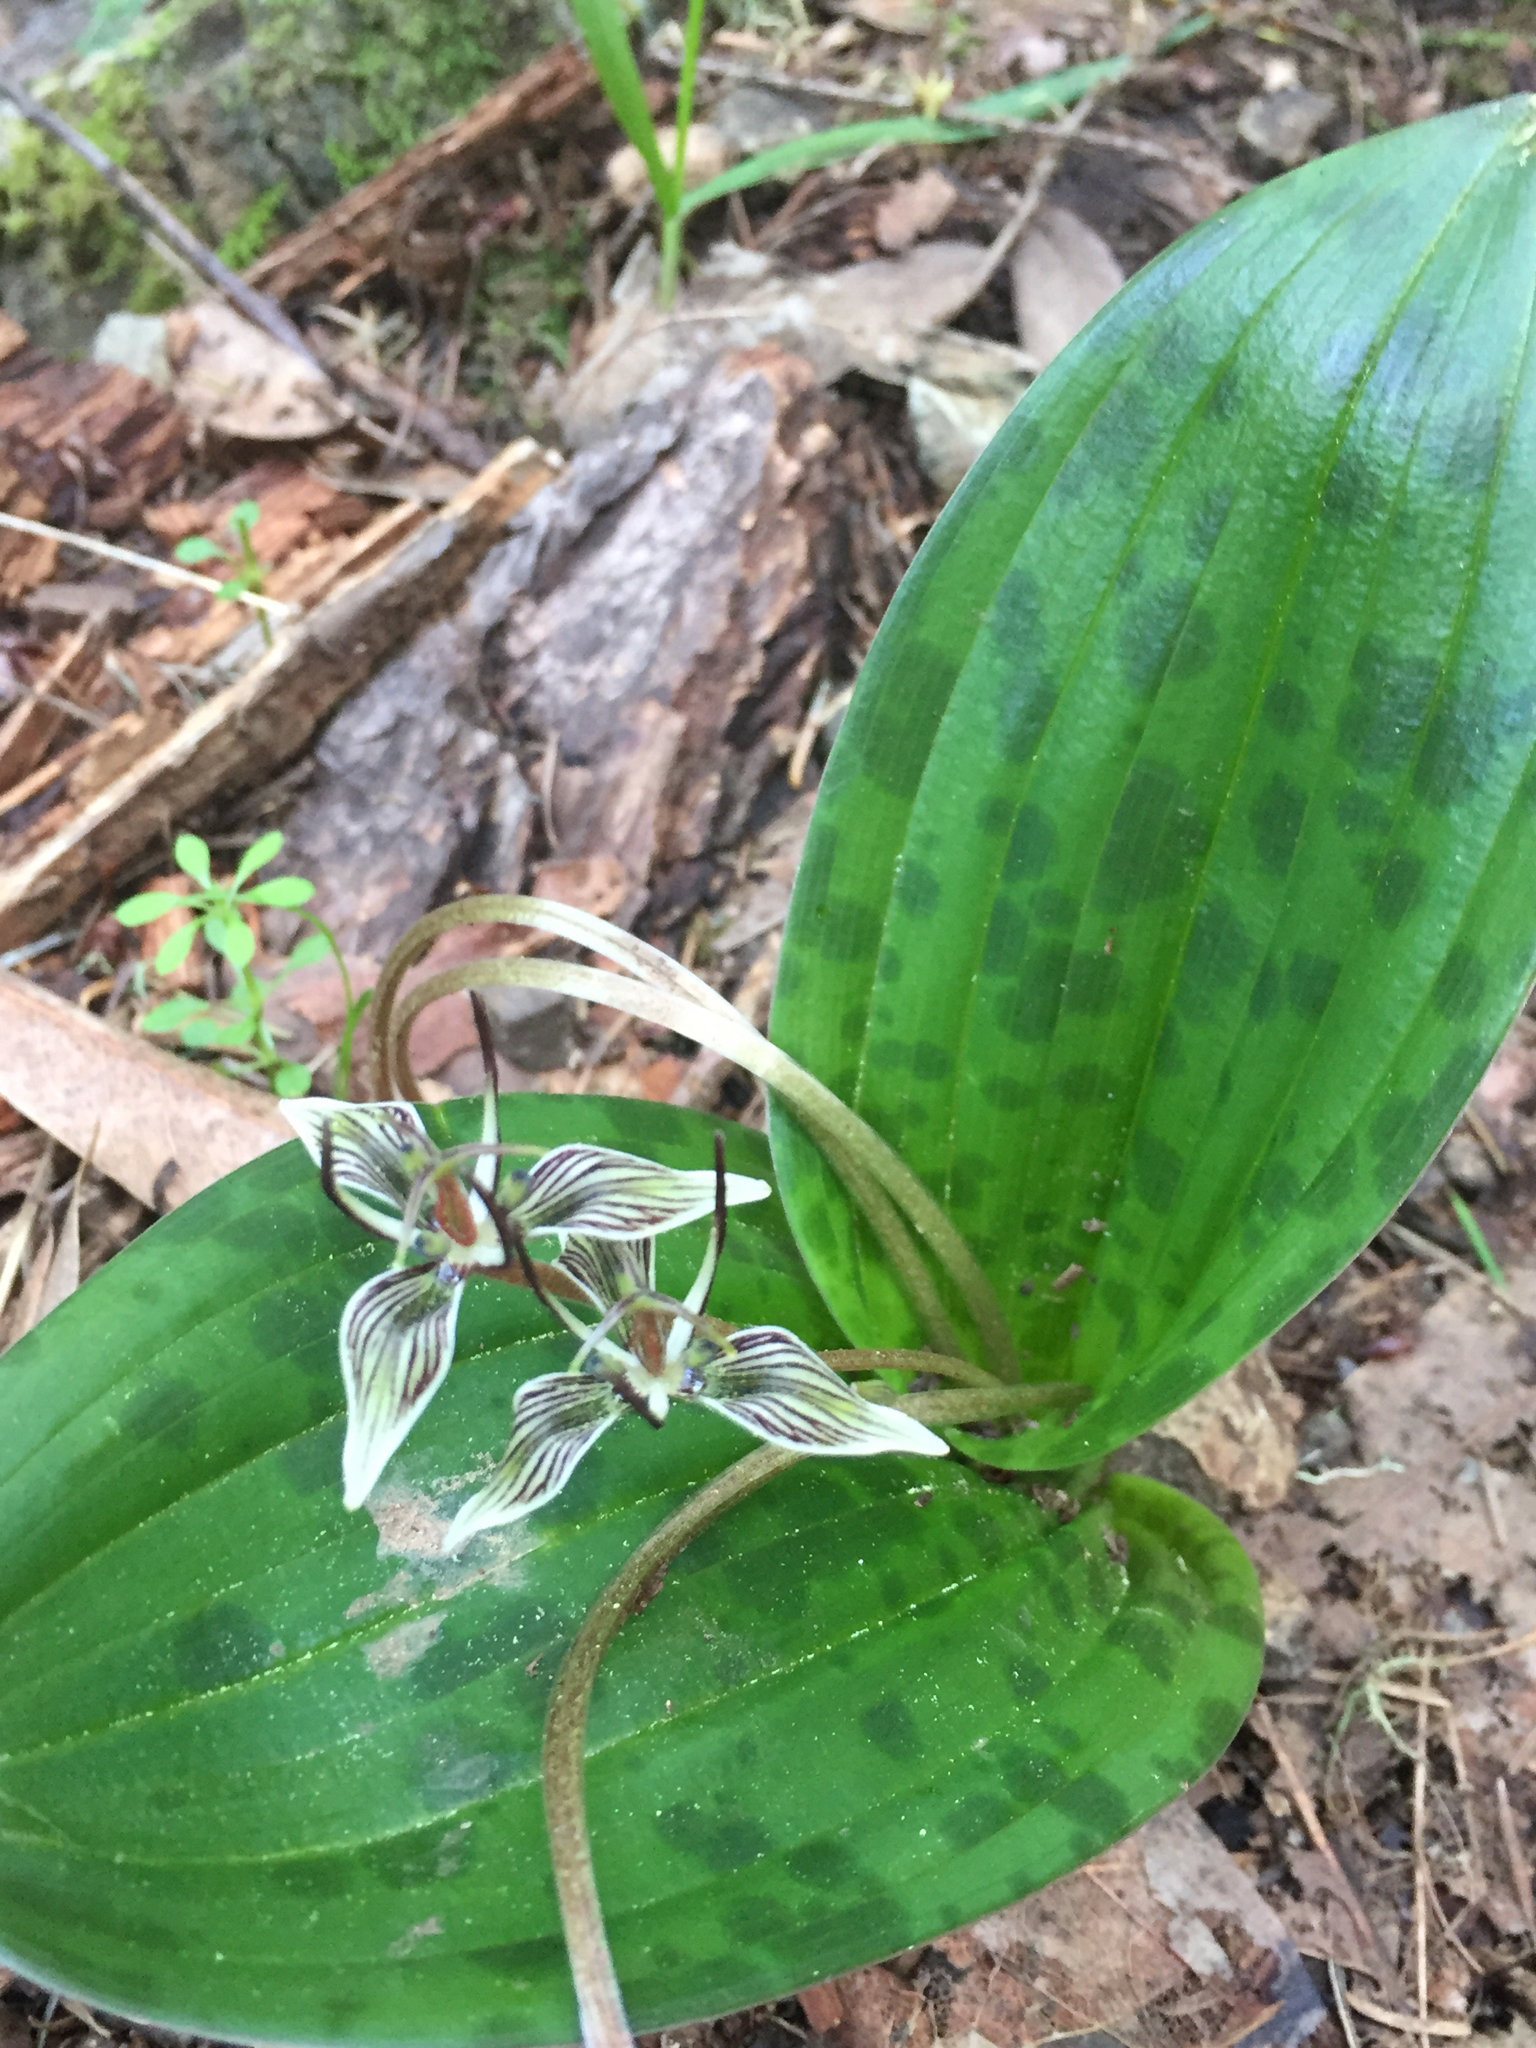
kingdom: Plantae
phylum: Tracheophyta
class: Liliopsida
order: Liliales
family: Liliaceae
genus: Scoliopus
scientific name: Scoliopus bigelovii
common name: Foetid adder's-tongue
